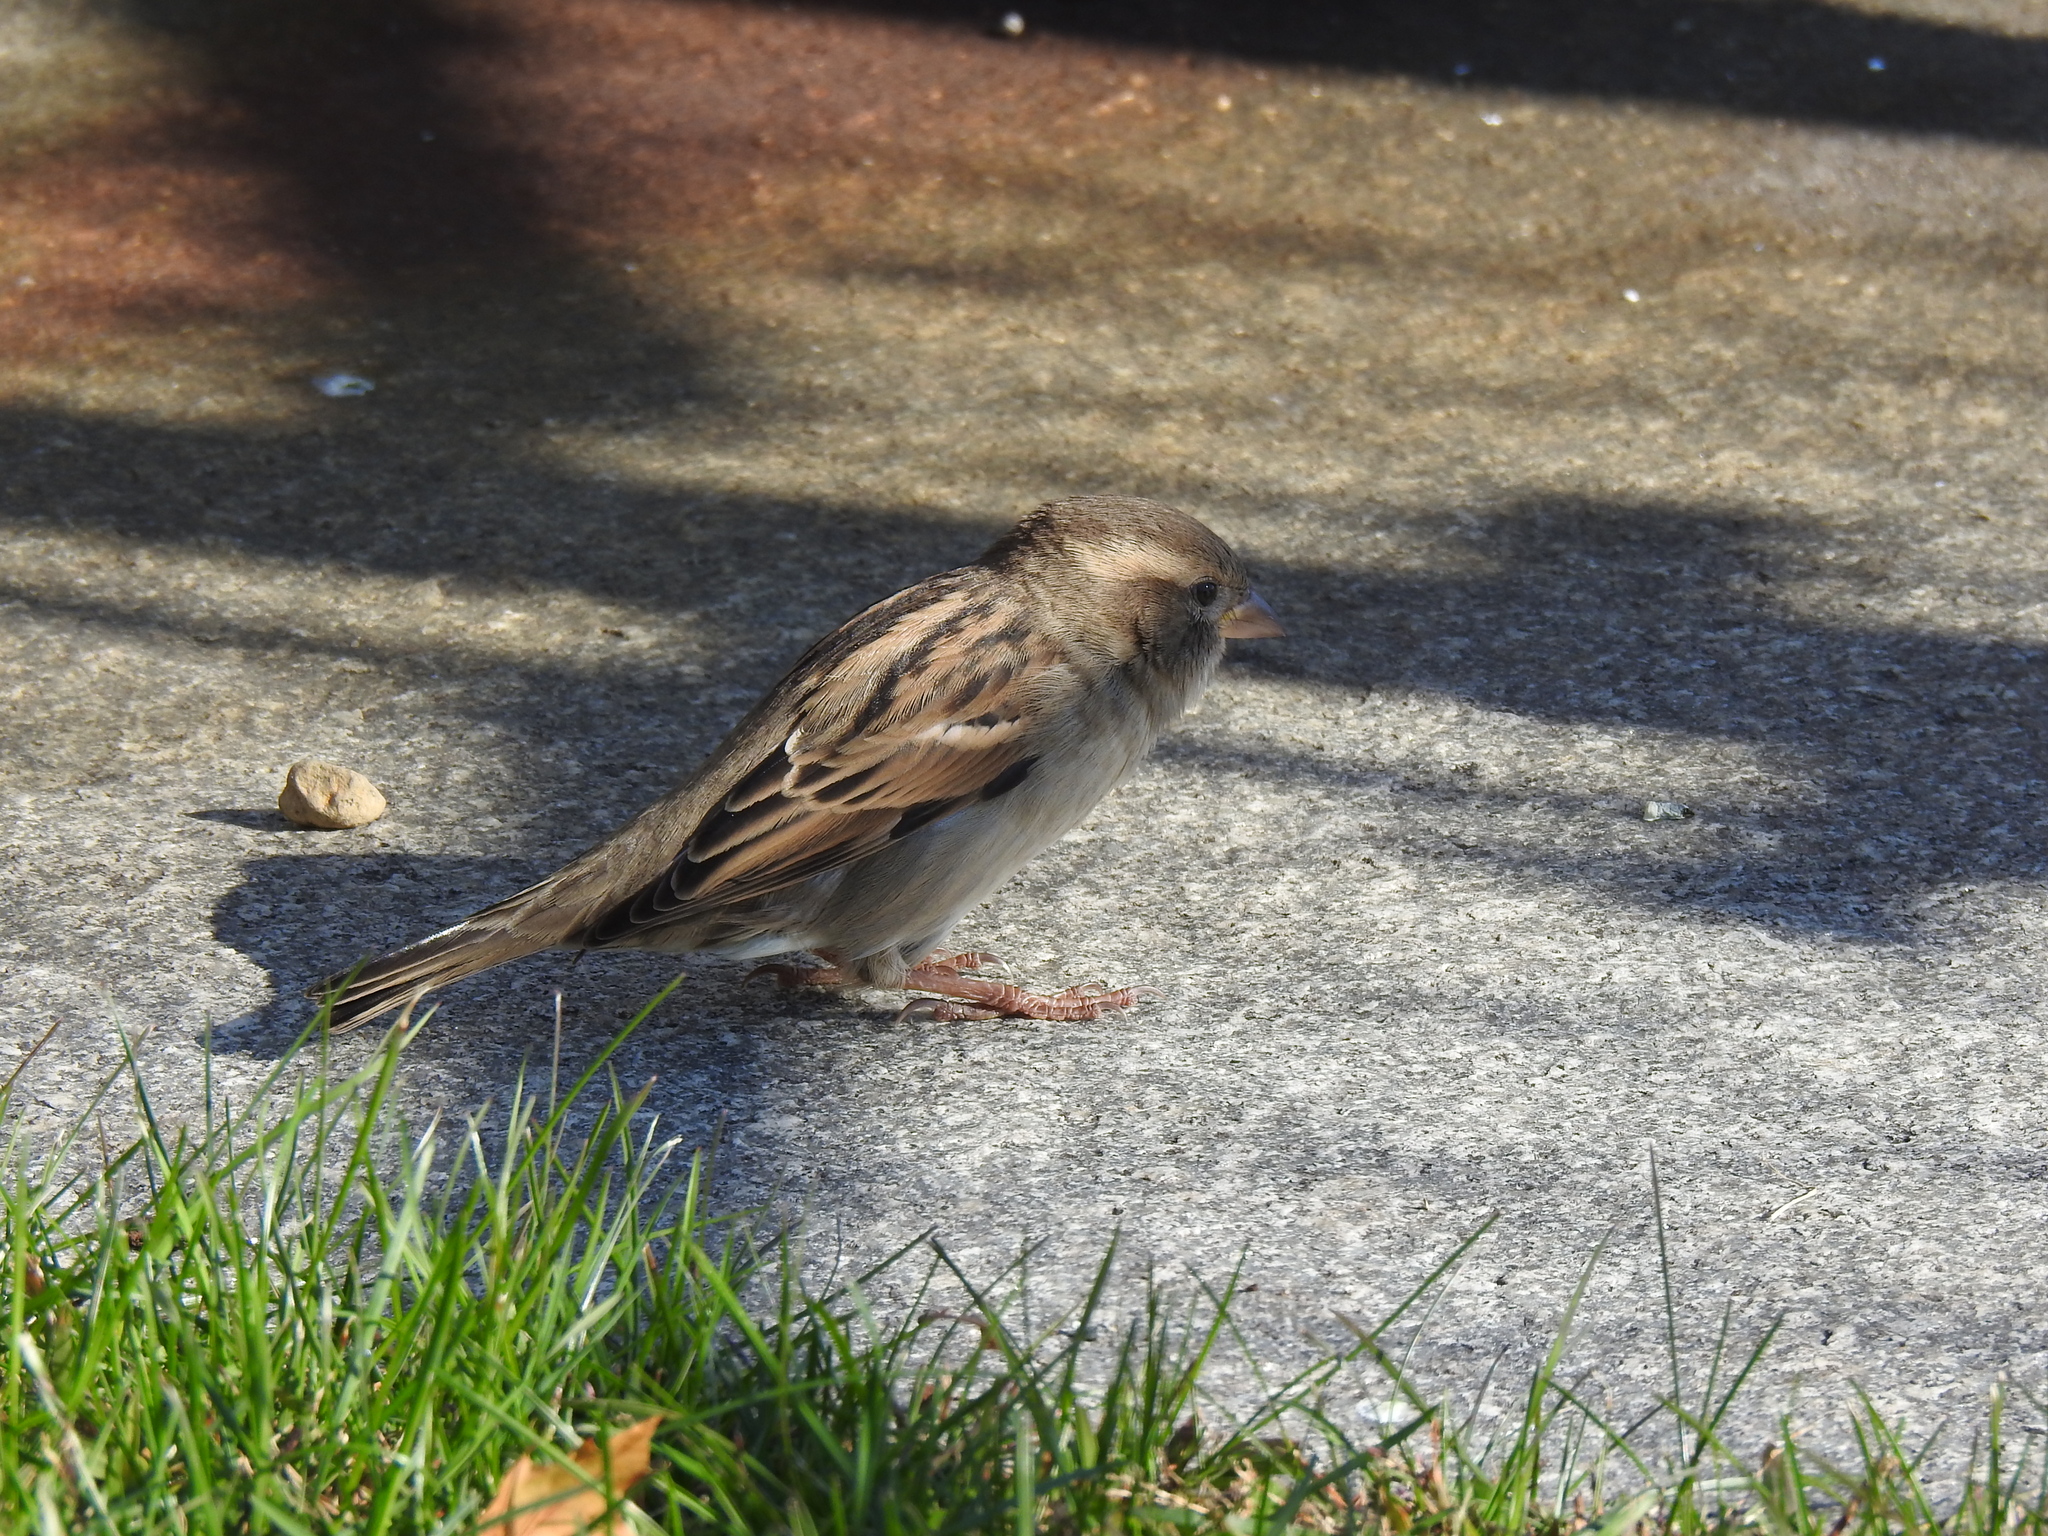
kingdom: Animalia
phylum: Chordata
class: Aves
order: Passeriformes
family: Passeridae
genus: Passer
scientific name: Passer domesticus
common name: House sparrow
